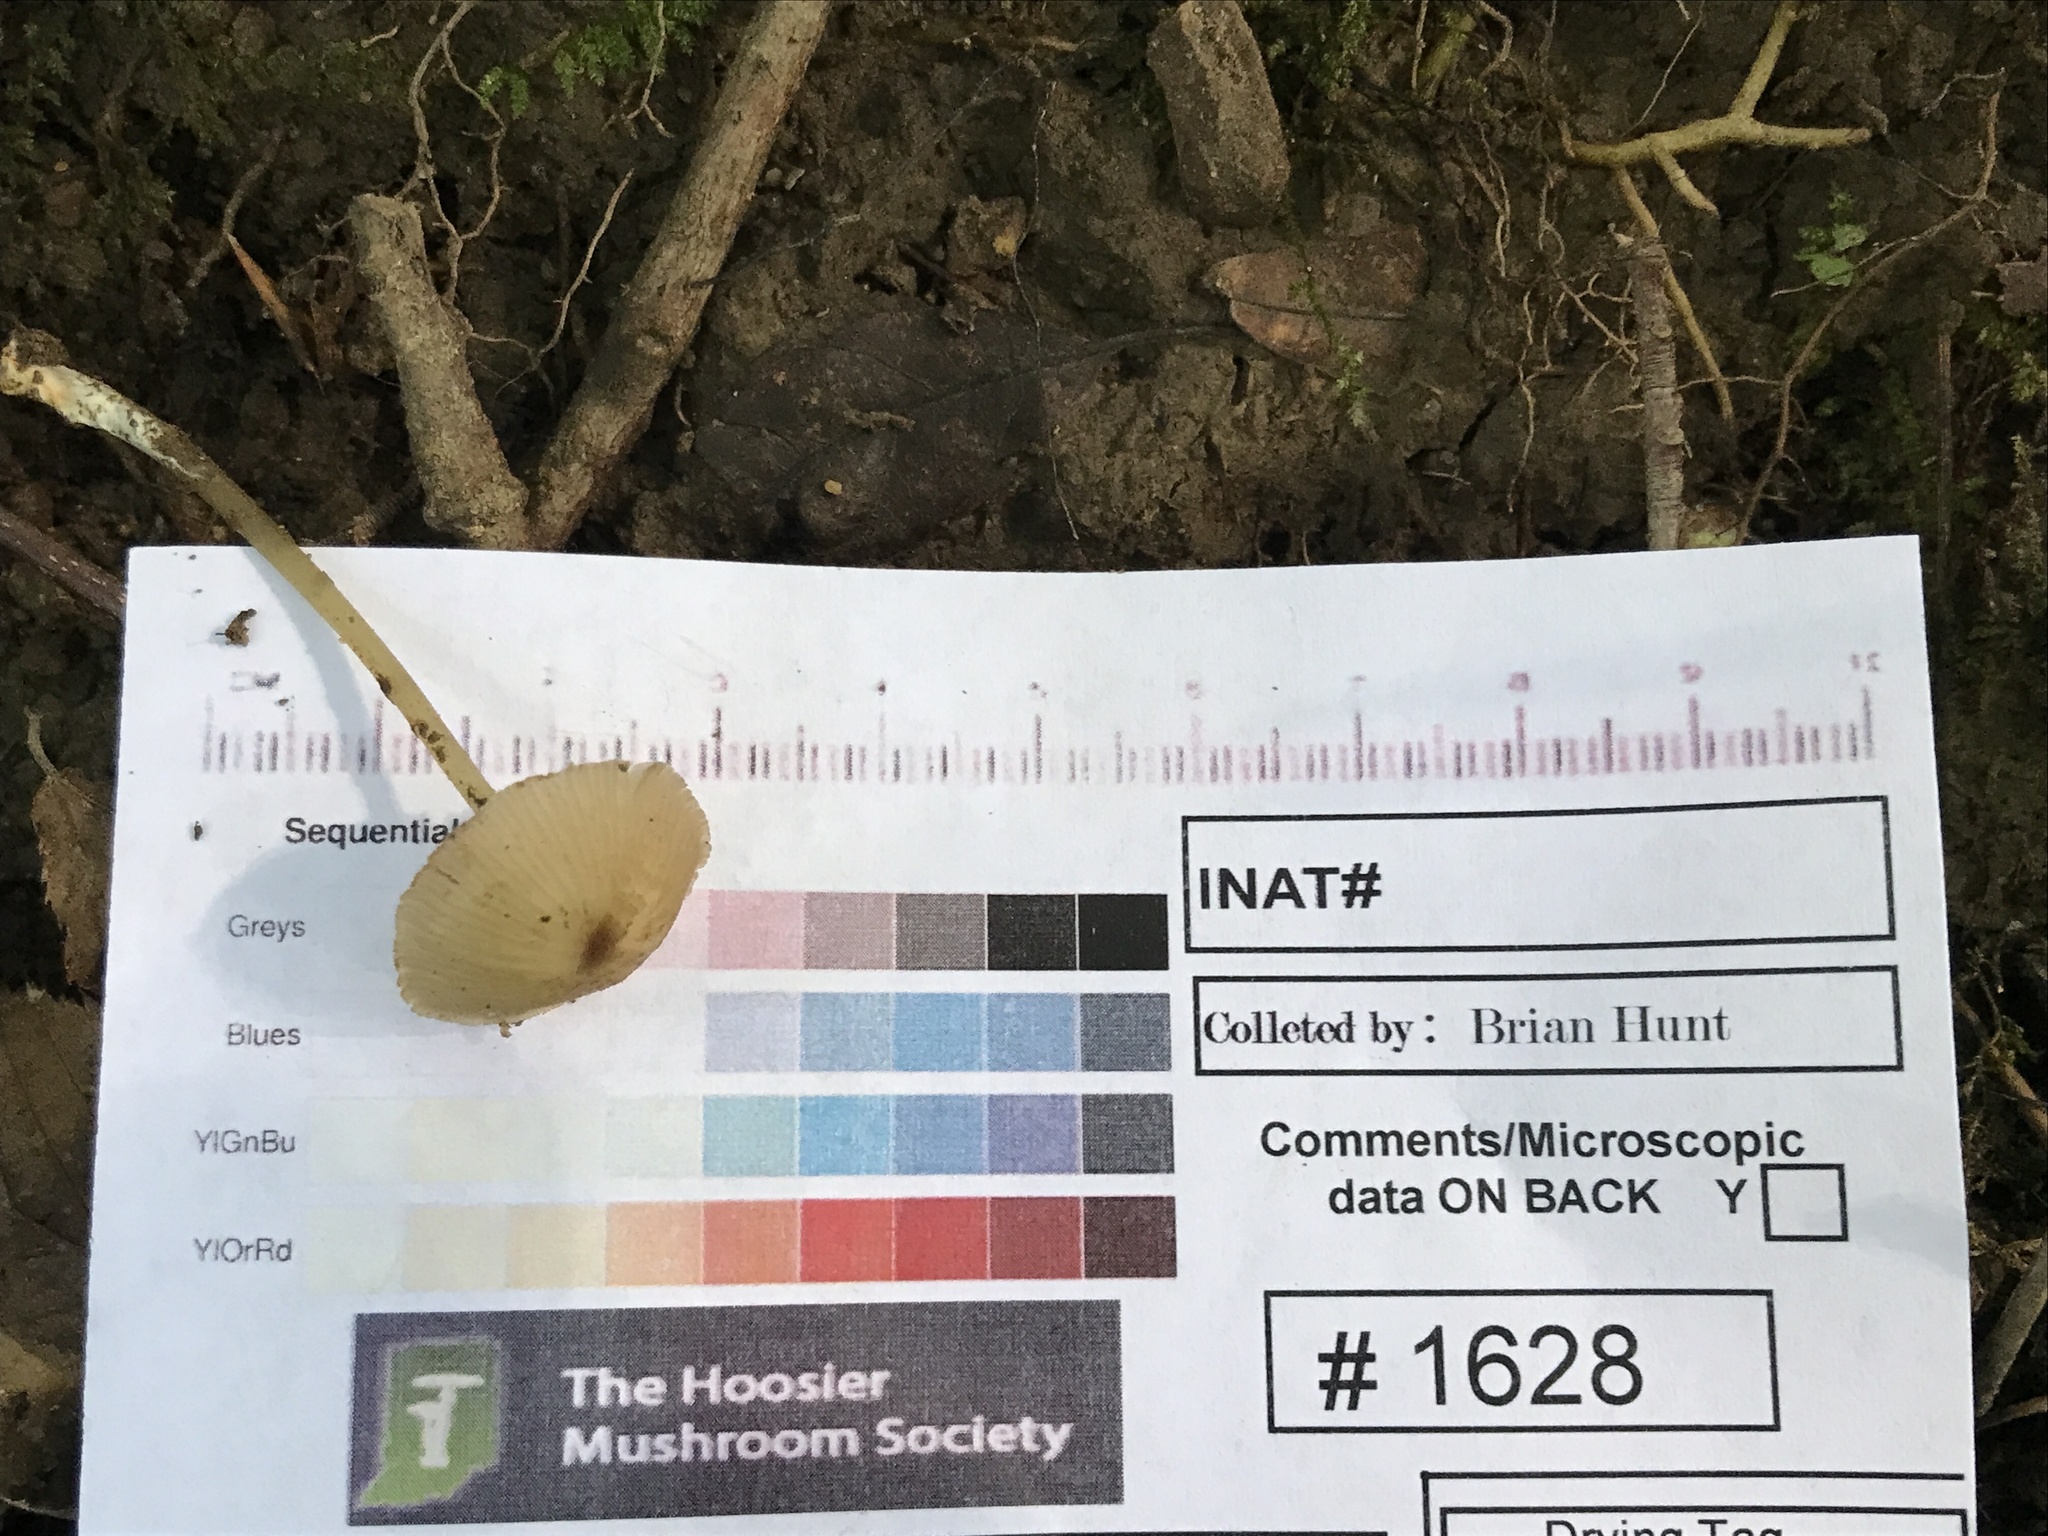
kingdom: Fungi
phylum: Basidiomycota
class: Agaricomycetes
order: Agaricales
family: Entolomataceae
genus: Entoloma
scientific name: Entoloma olivaceomarginatum
